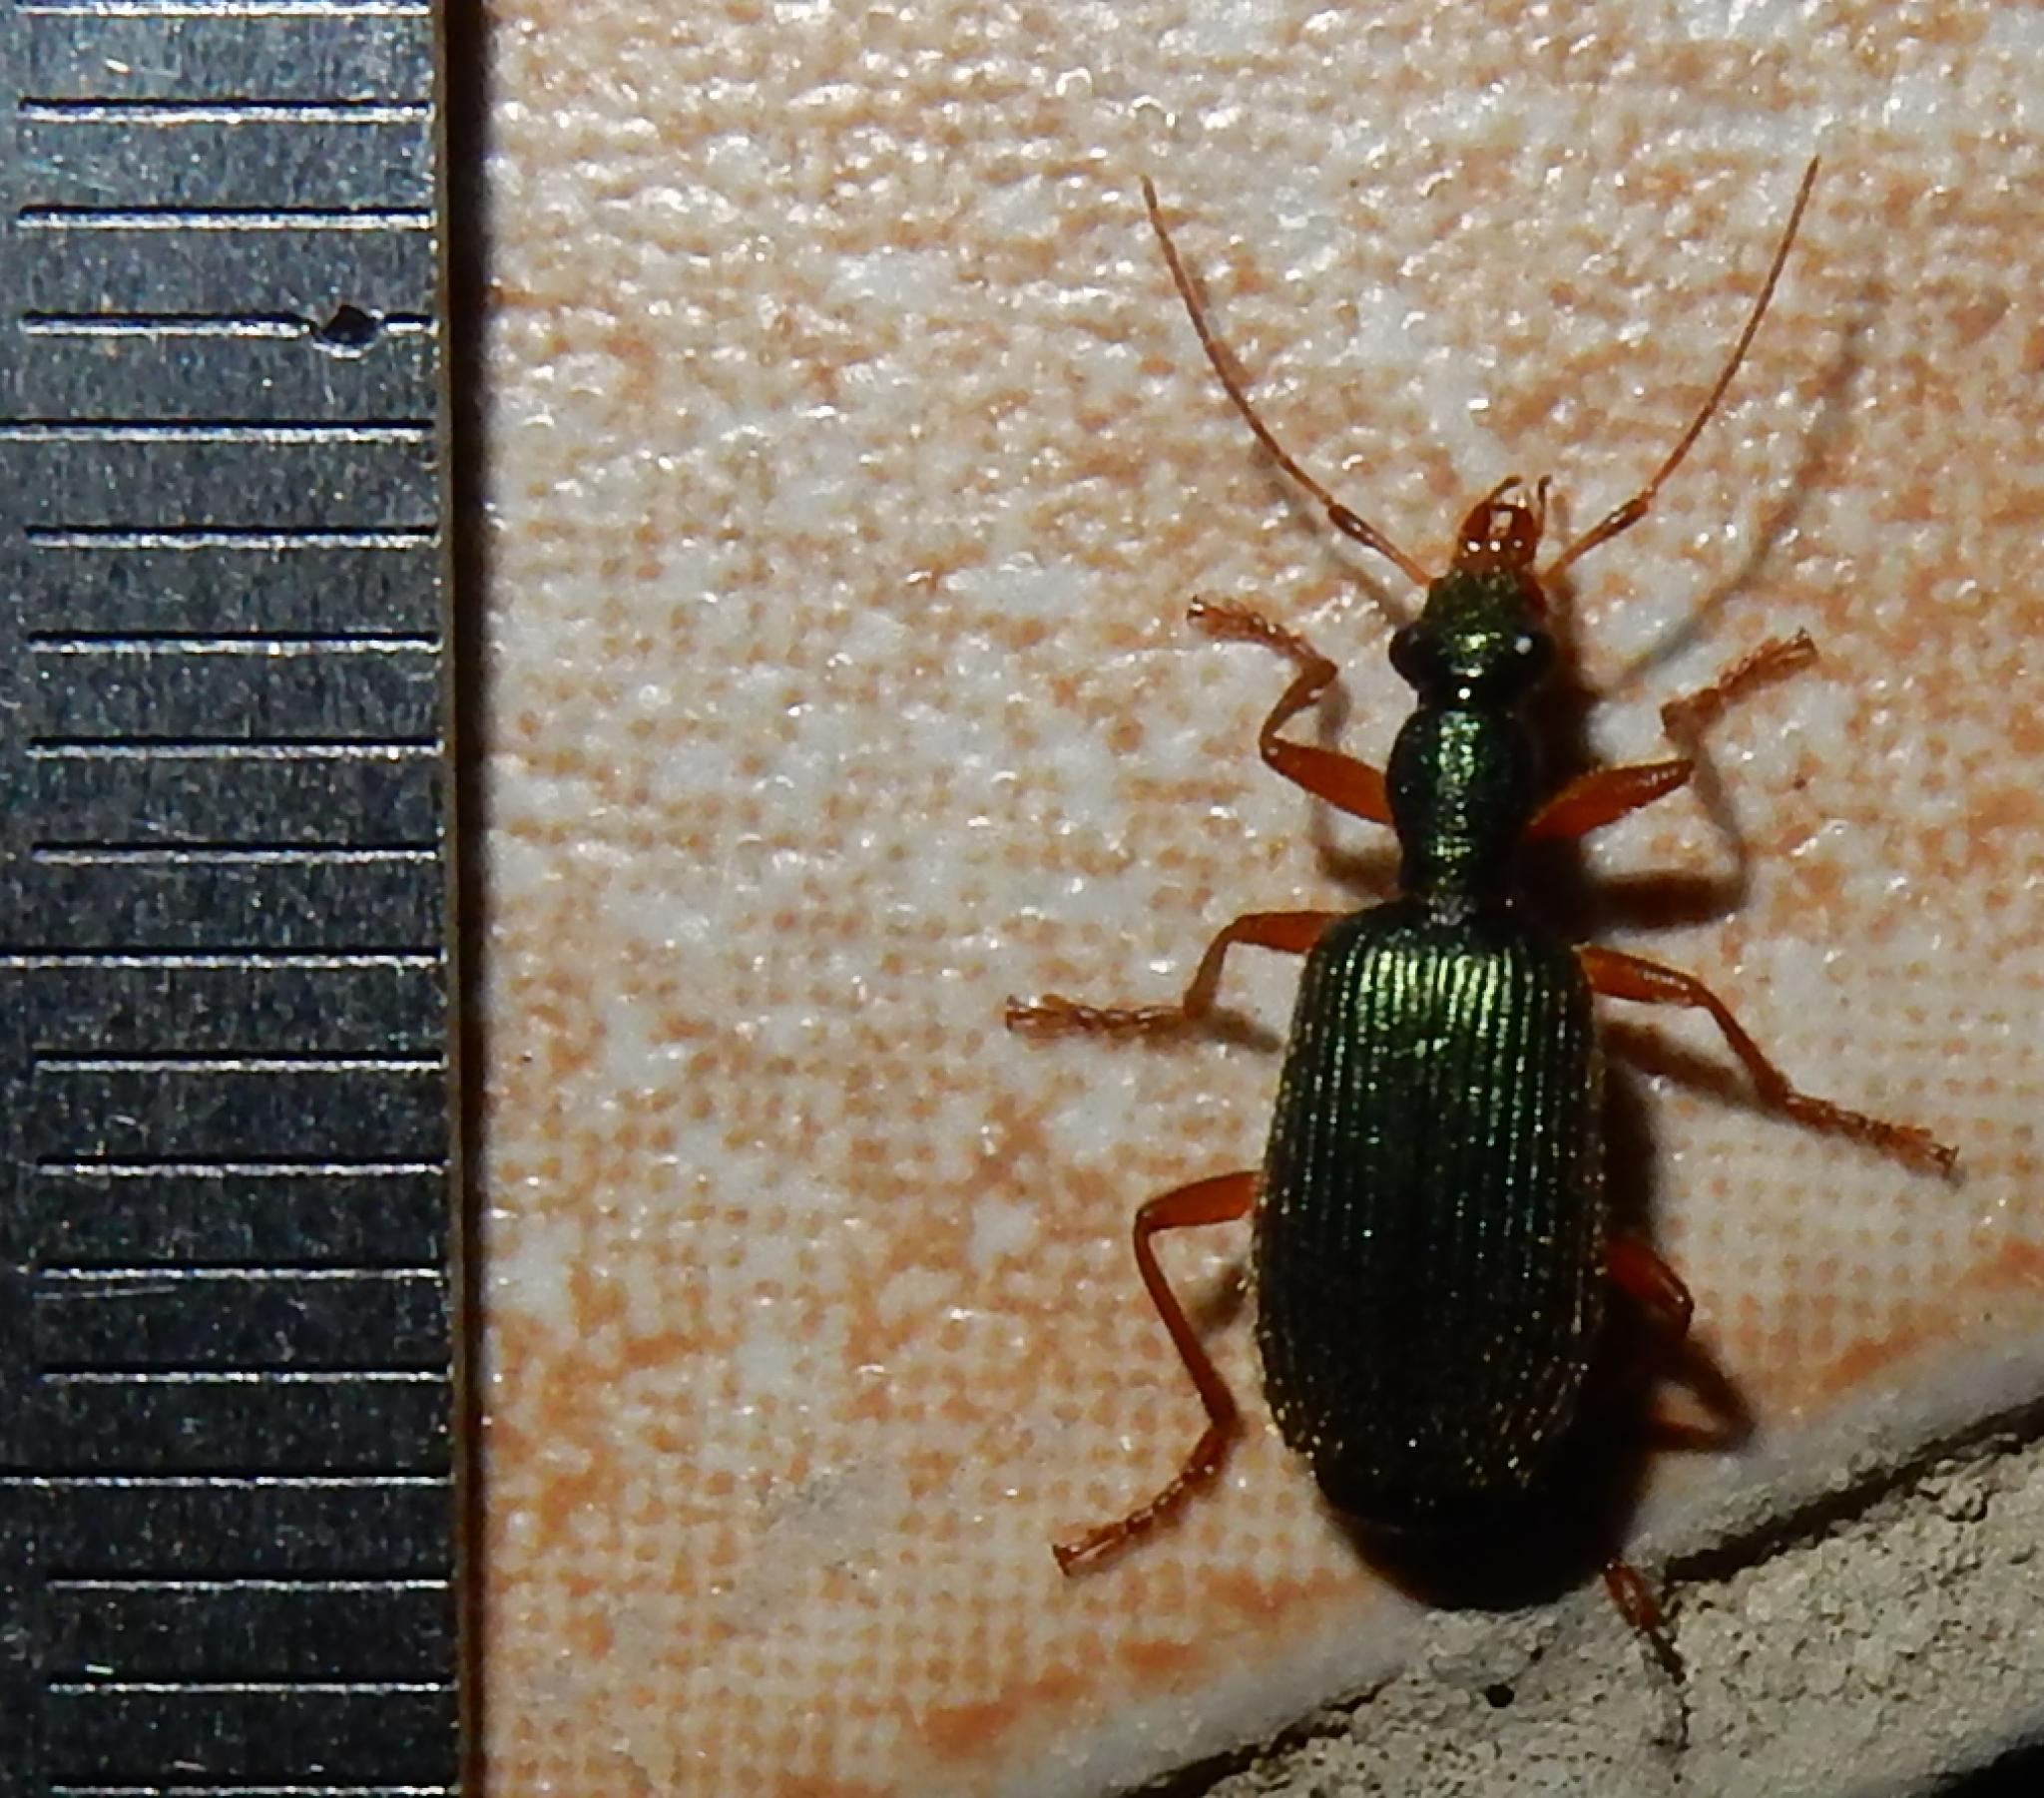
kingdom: Animalia
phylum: Arthropoda
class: Insecta
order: Coleoptera
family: Carabidae
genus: Drypta
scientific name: Drypta dentata
